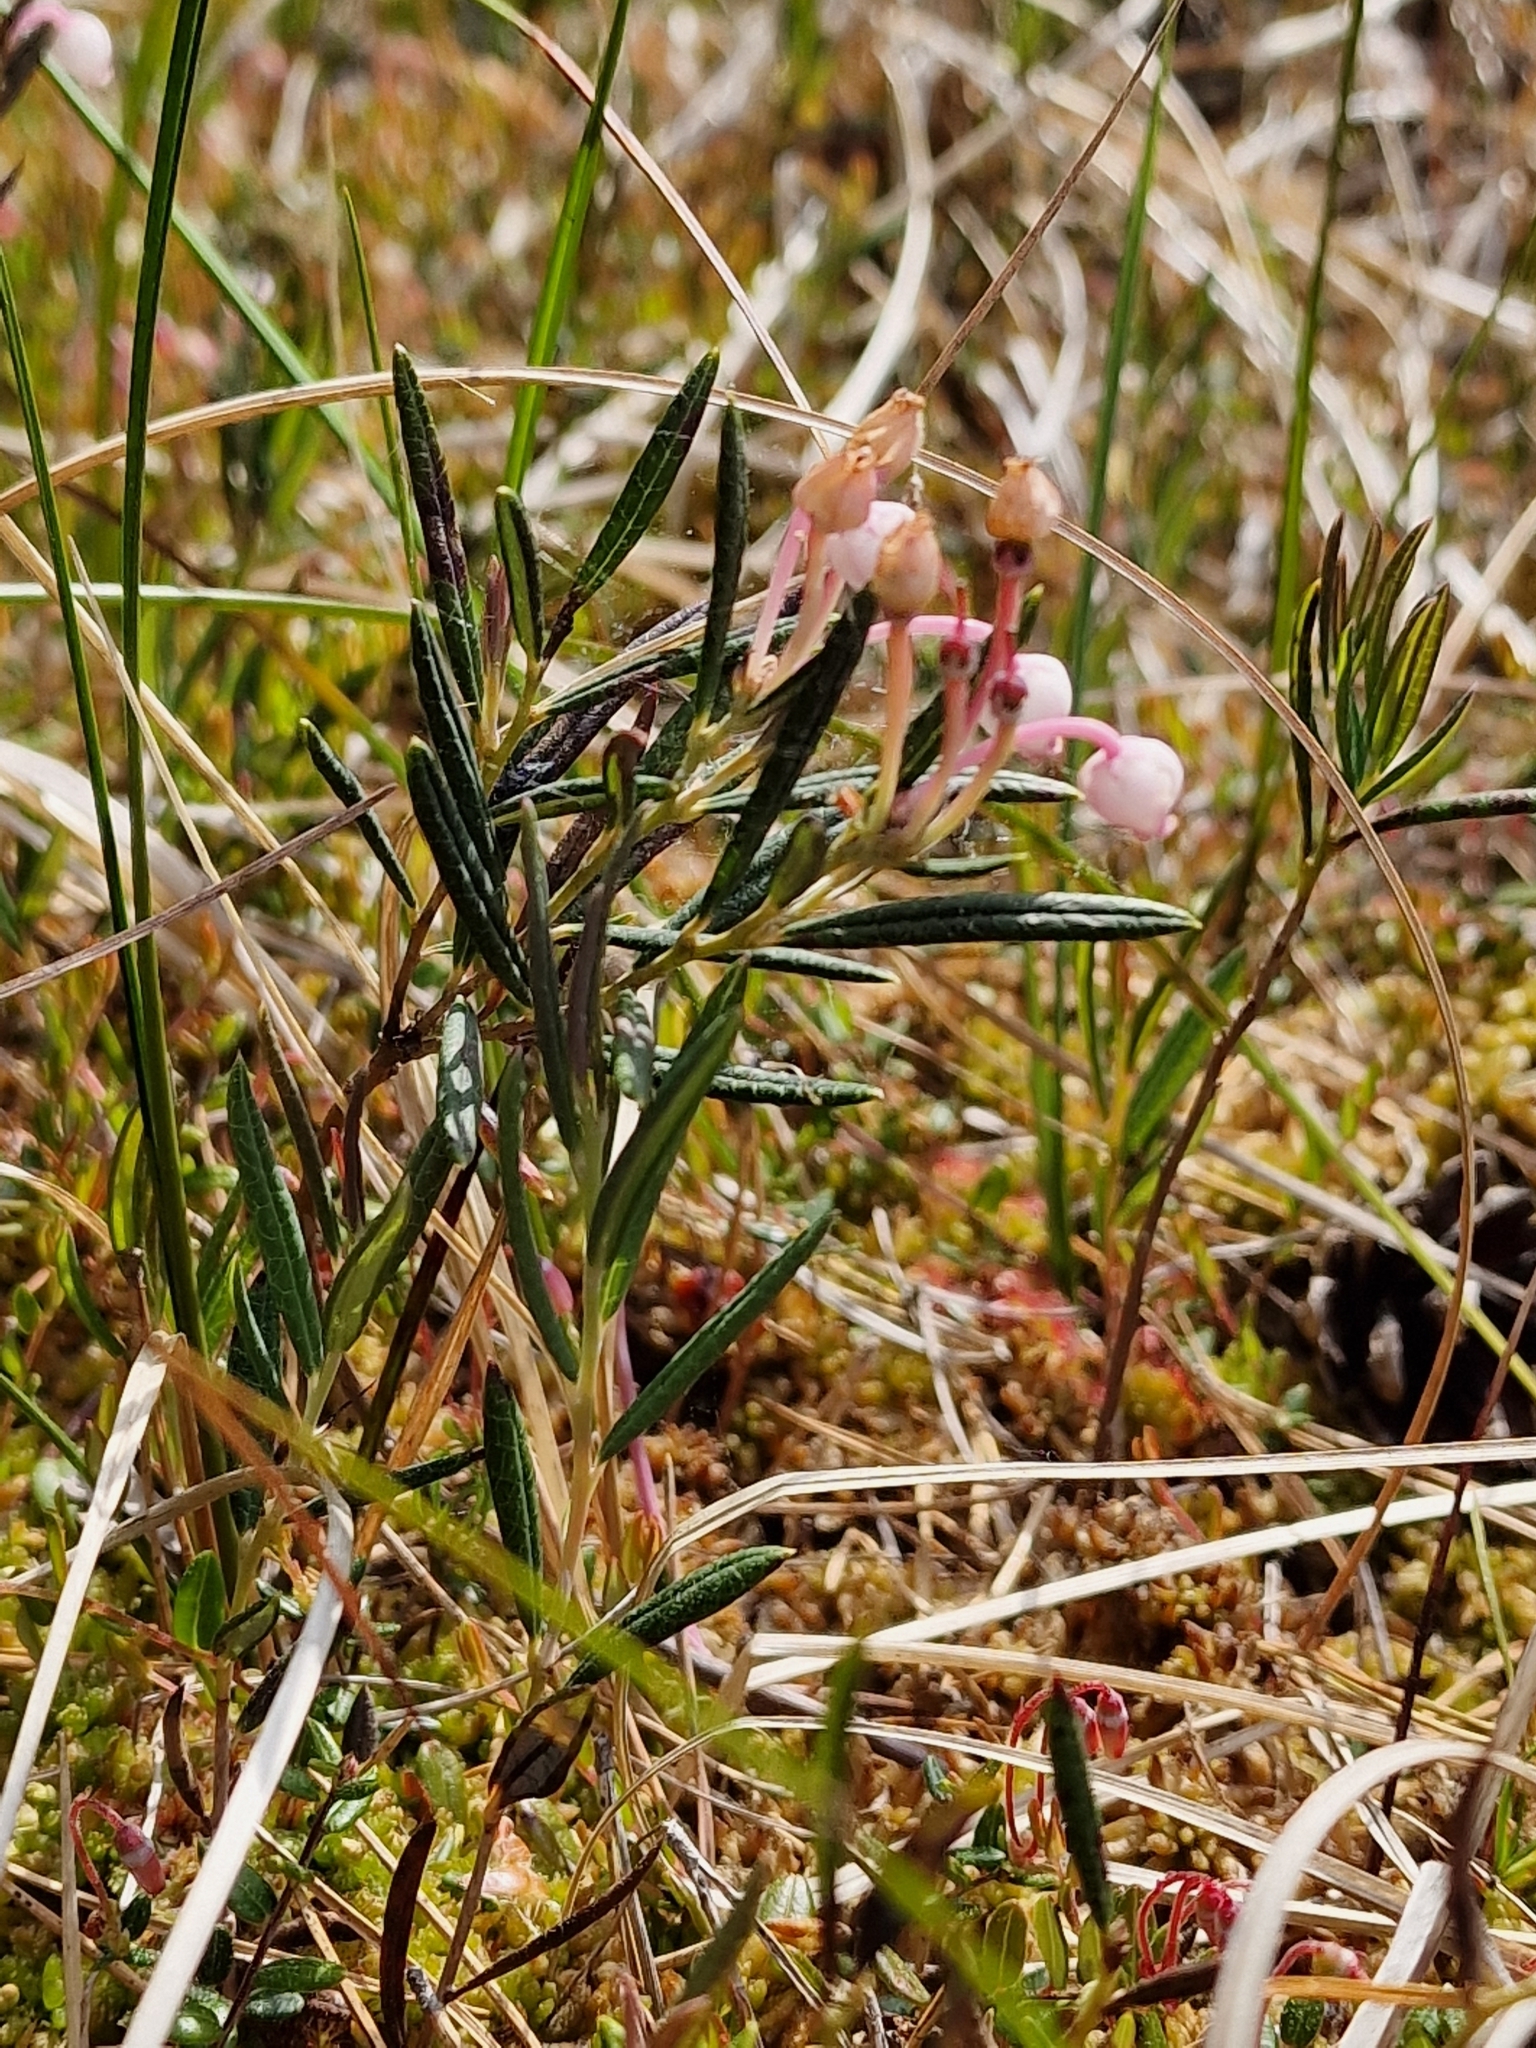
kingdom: Plantae
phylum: Tracheophyta
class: Magnoliopsida
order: Ericales
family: Ericaceae
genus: Andromeda
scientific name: Andromeda polifolia
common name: Bog-rosemary
